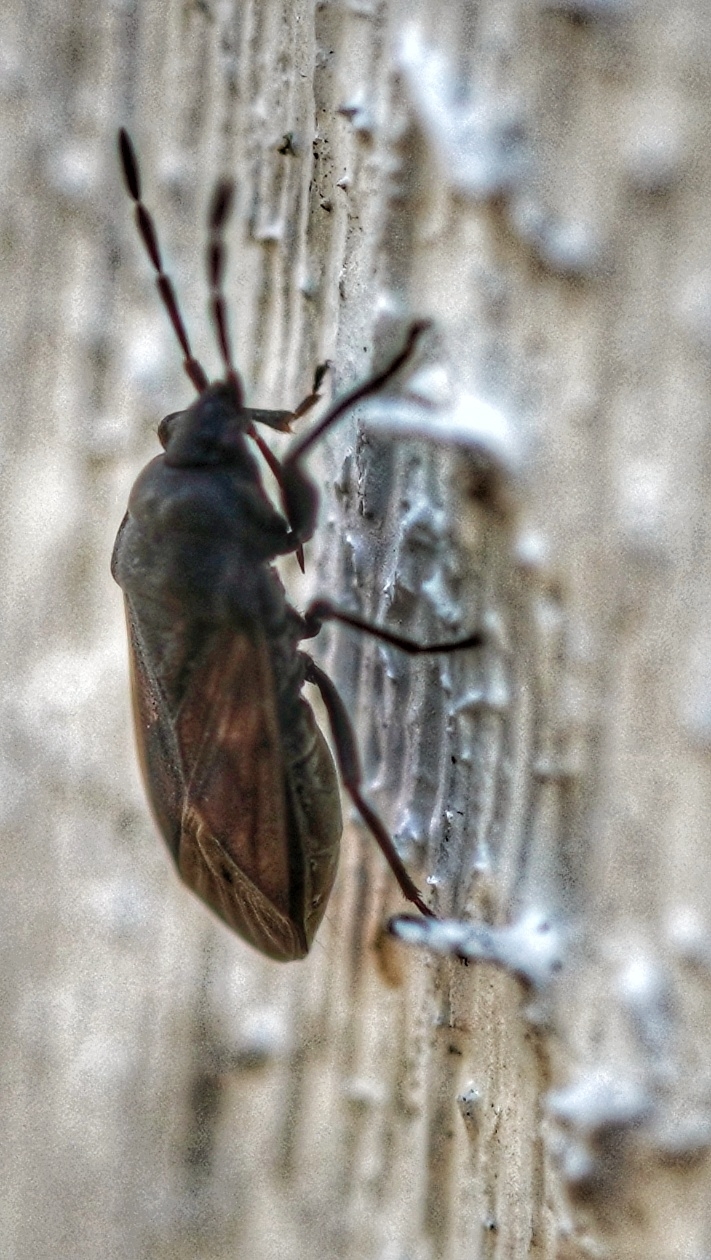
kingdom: Animalia
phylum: Arthropoda
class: Insecta
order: Hemiptera
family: Rhyparochromidae
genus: Drymus
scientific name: Drymus sylvaticus
